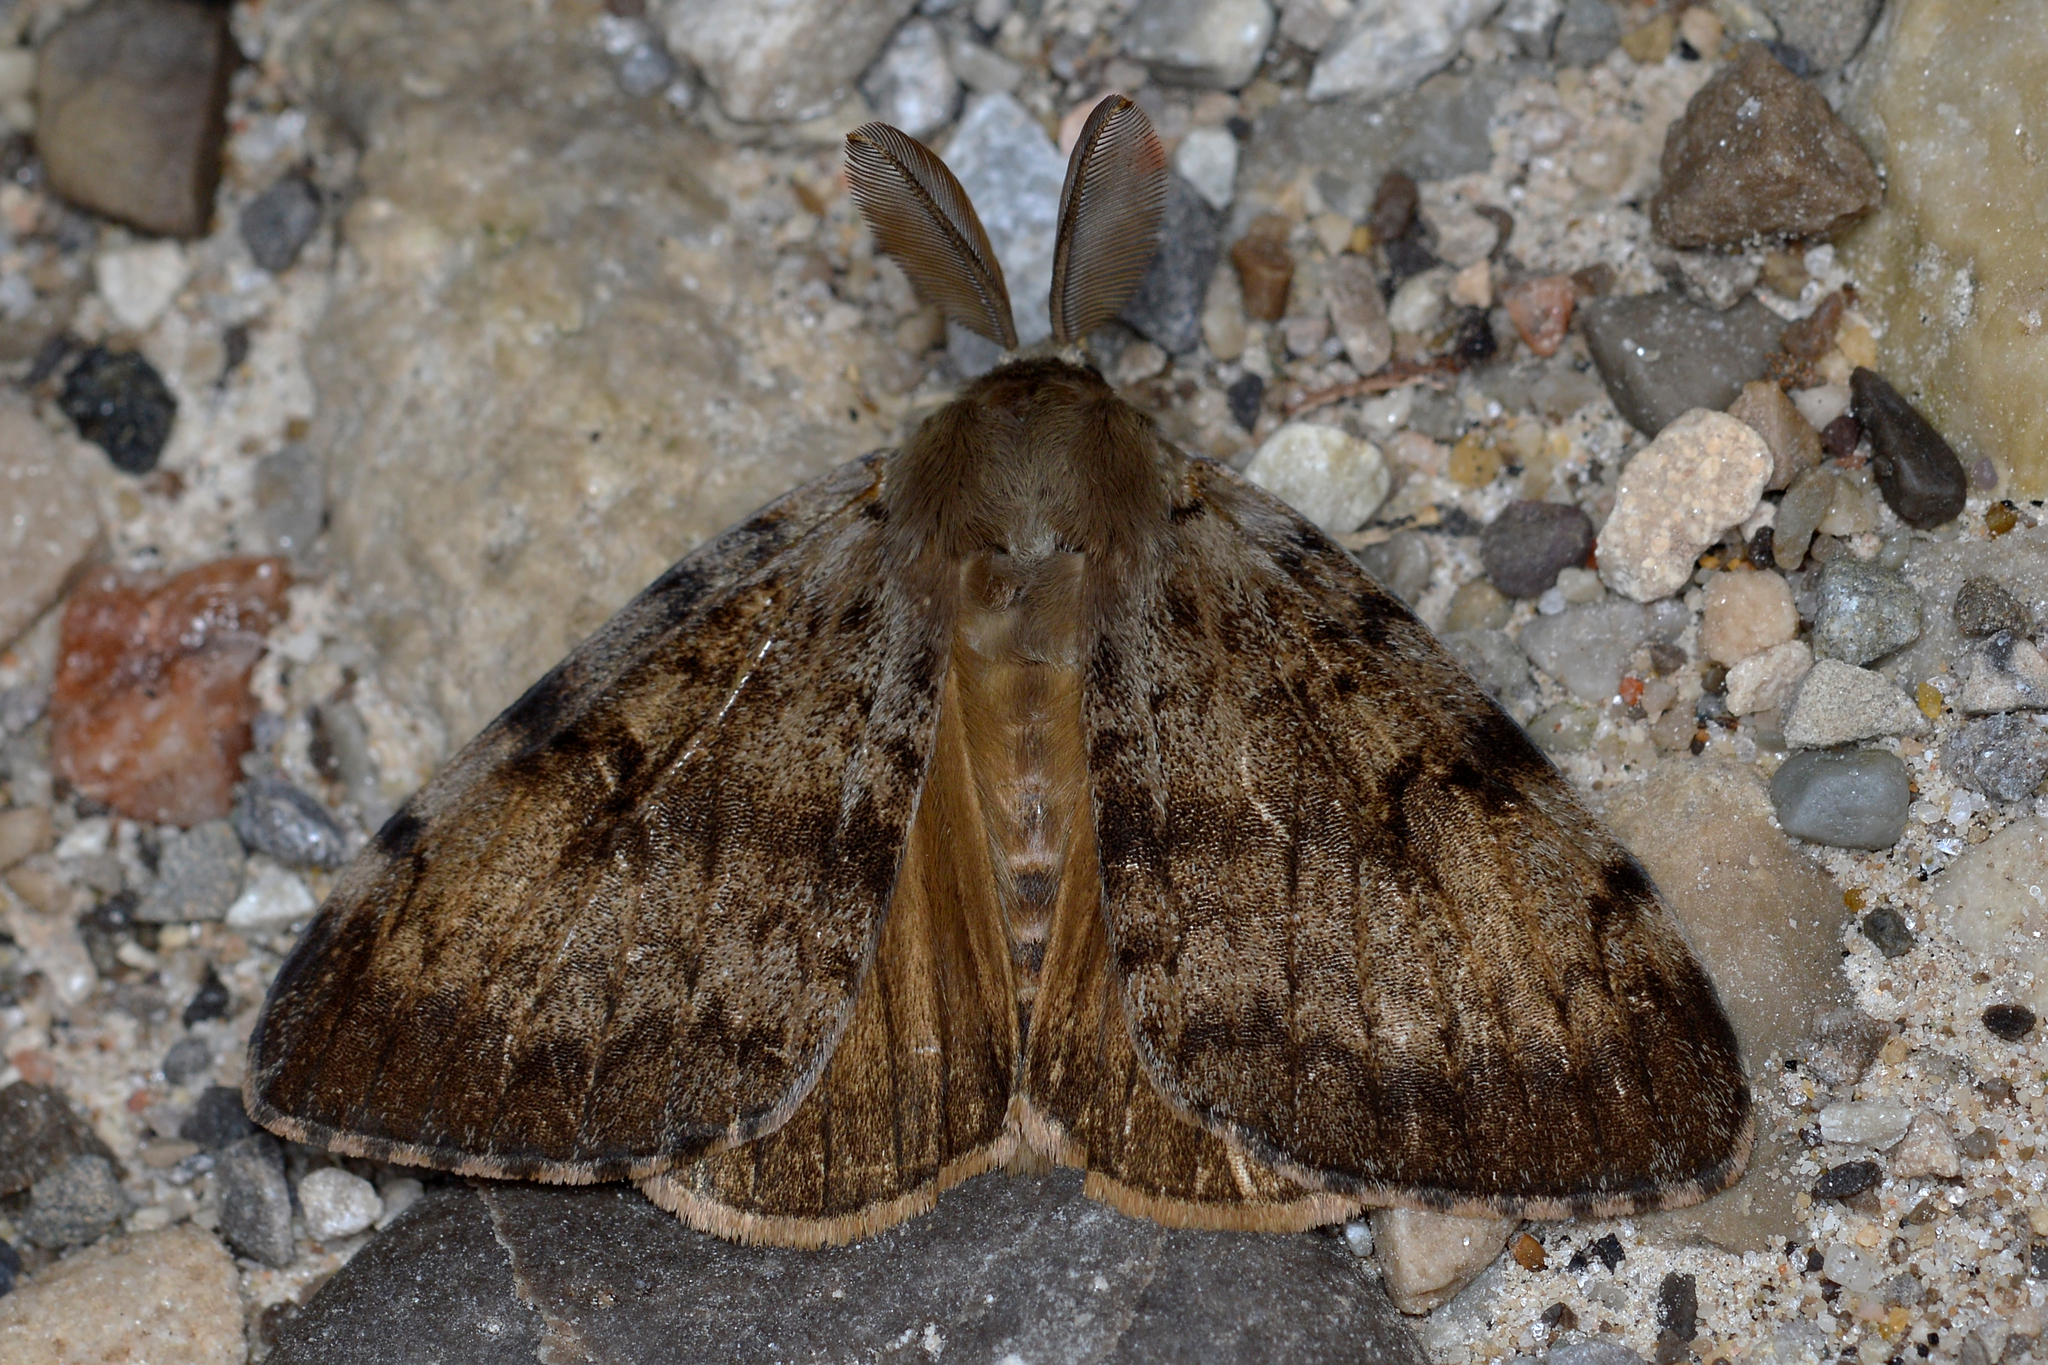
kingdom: Animalia
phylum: Arthropoda
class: Insecta
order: Lepidoptera
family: Erebidae
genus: Lymantria
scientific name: Lymantria dispar
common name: Gypsy moth
